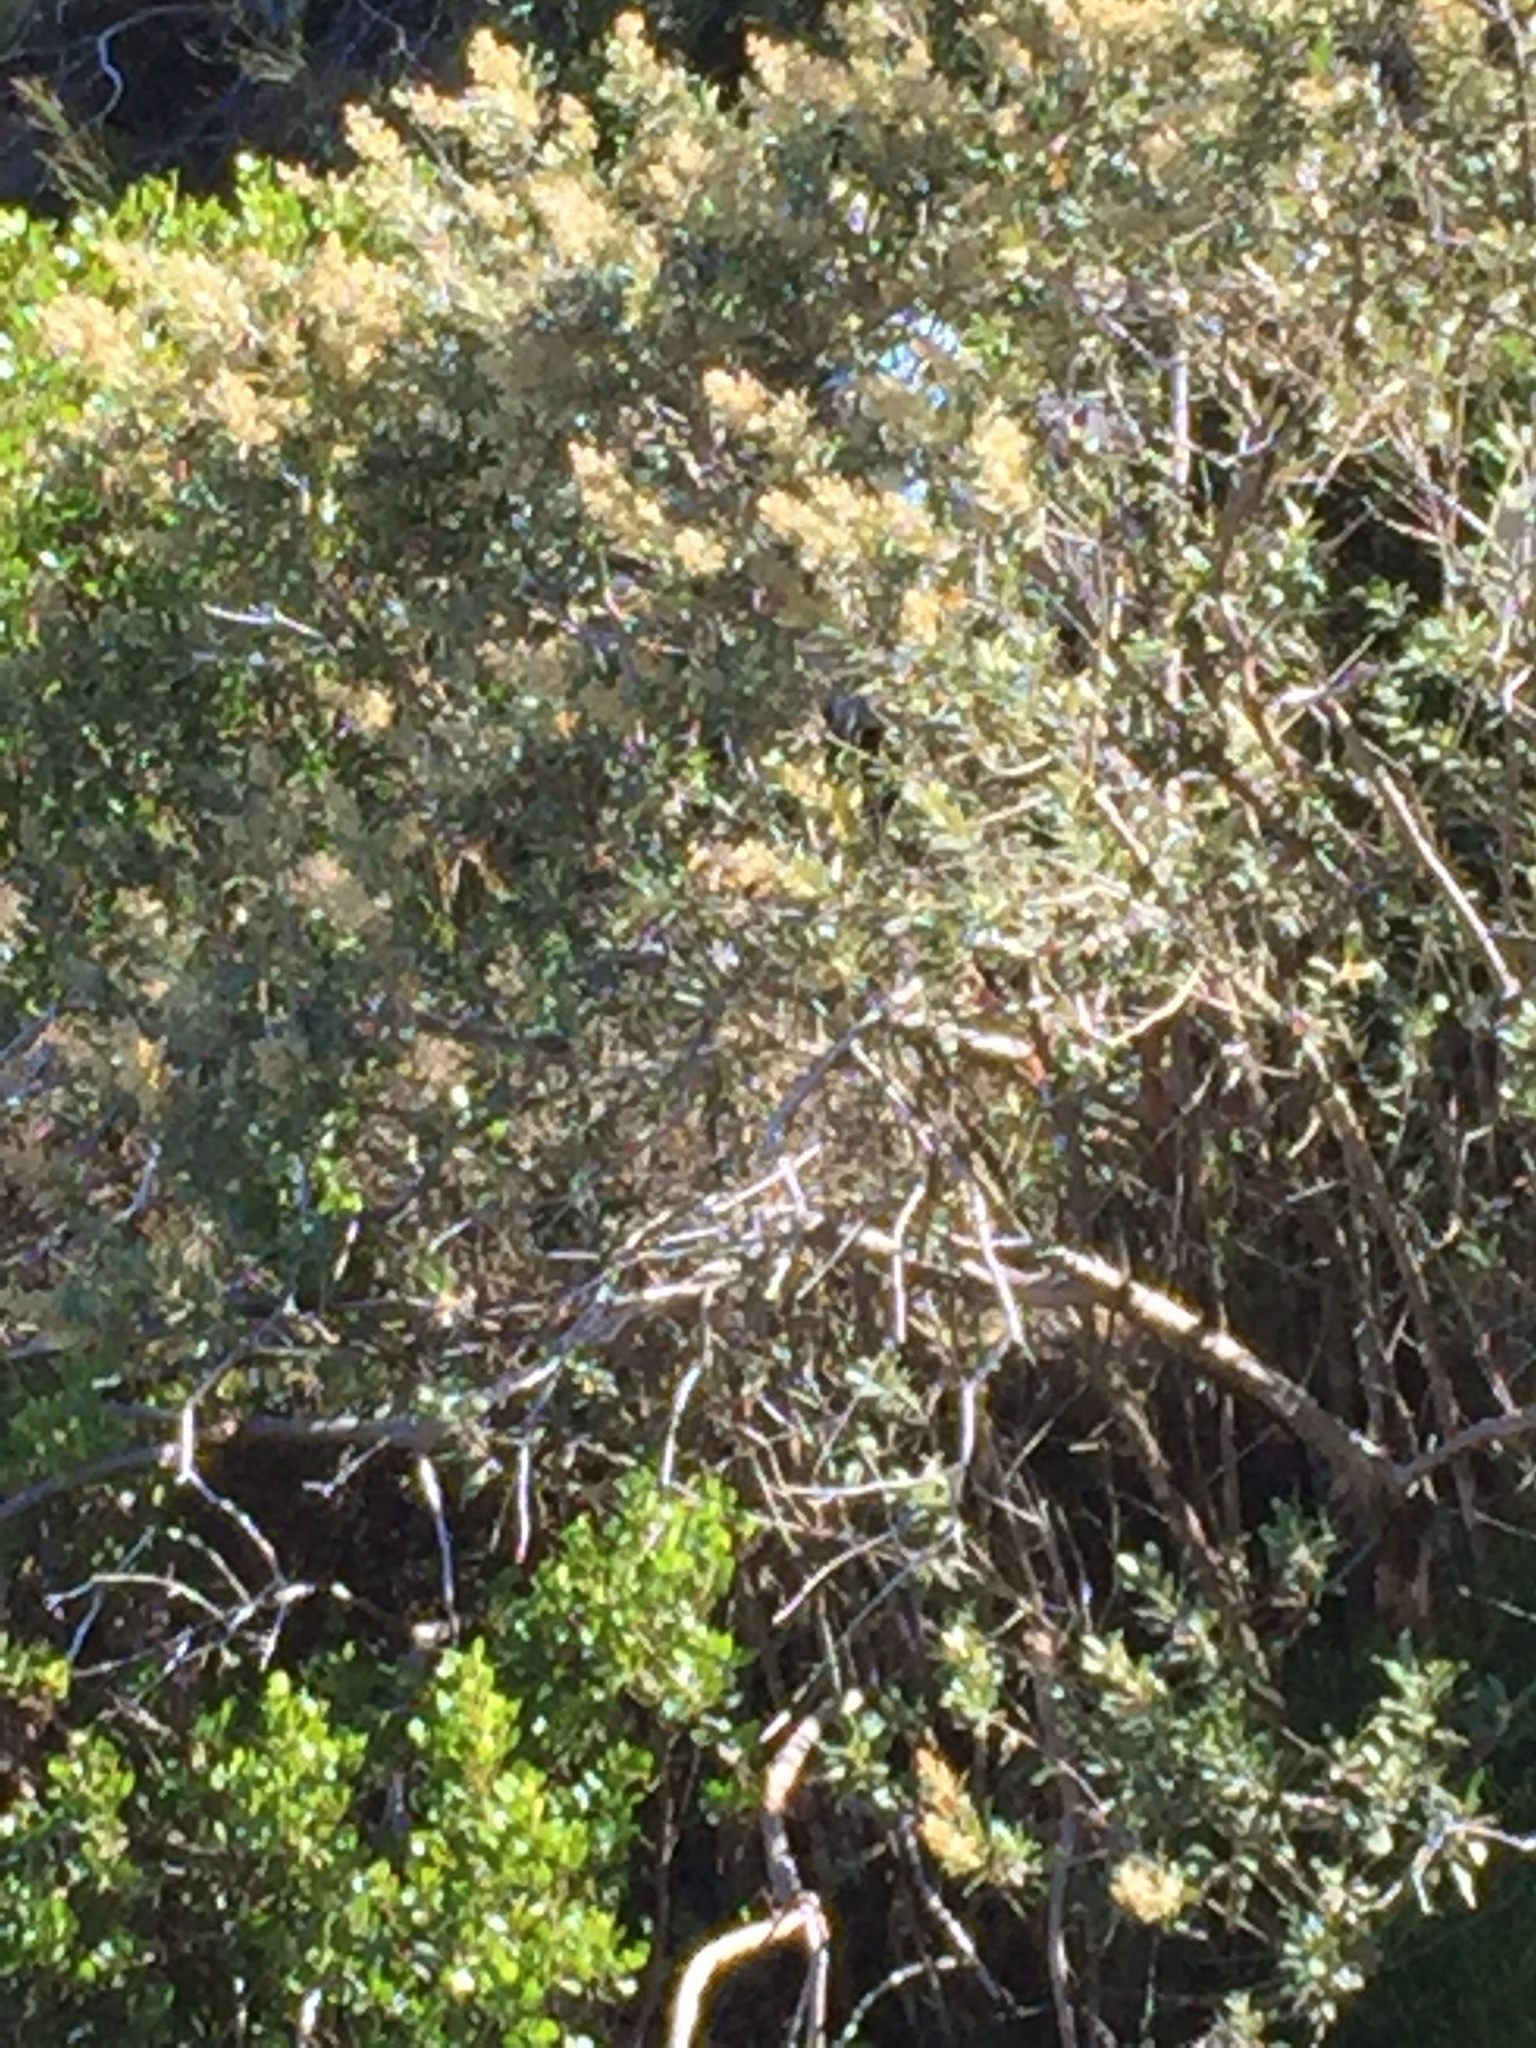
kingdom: Plantae
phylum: Tracheophyta
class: Magnoliopsida
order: Asterales
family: Asteraceae
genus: Tarchonanthus
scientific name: Tarchonanthus littoralis
